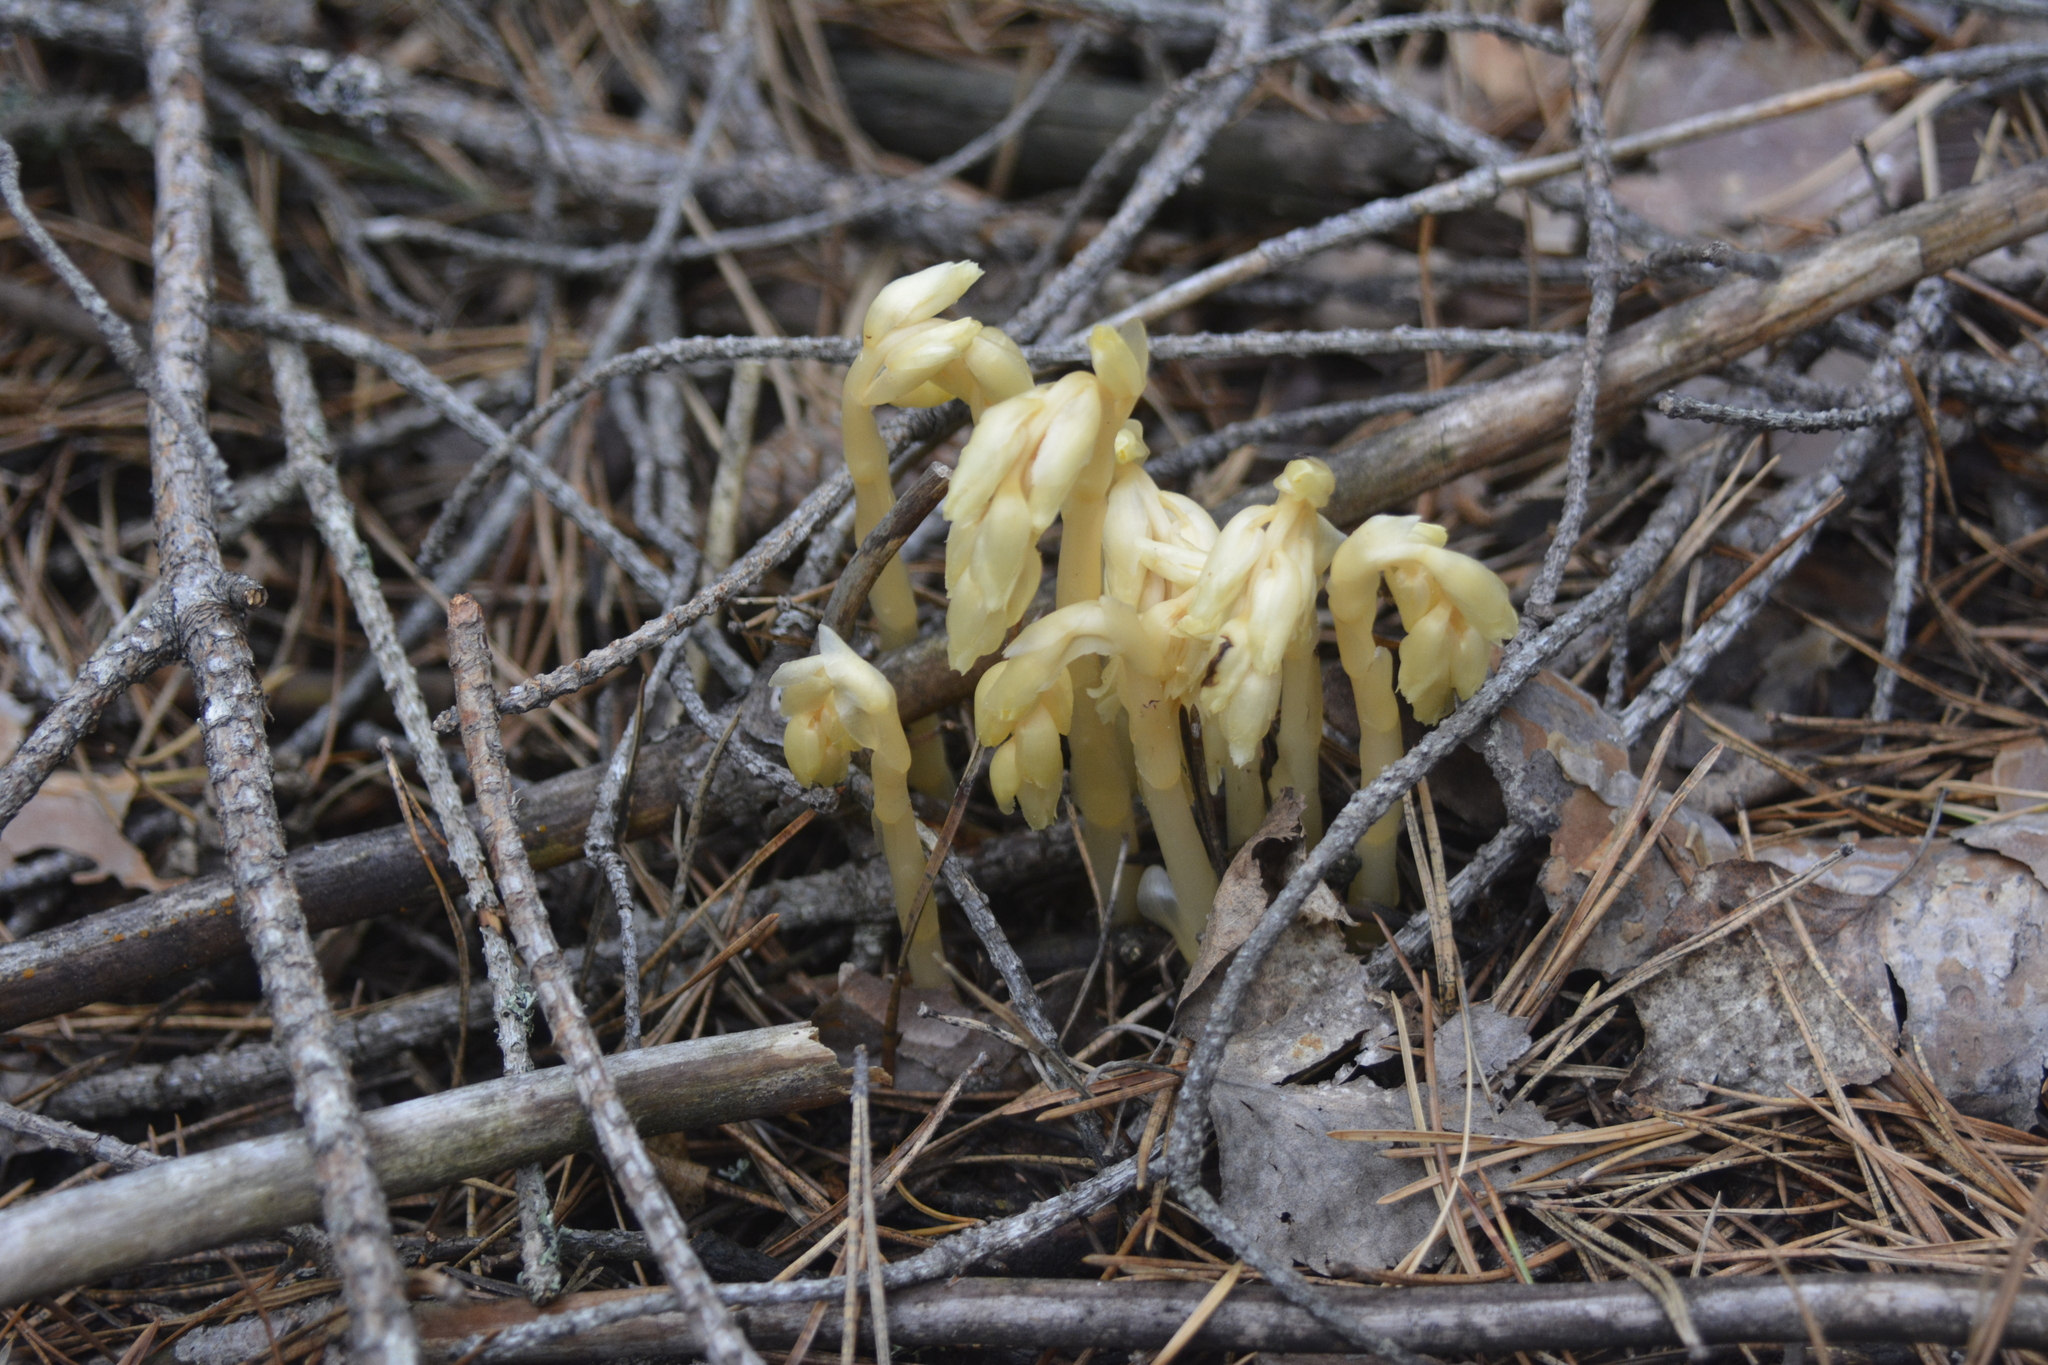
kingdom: Plantae
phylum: Tracheophyta
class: Magnoliopsida
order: Ericales
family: Ericaceae
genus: Hypopitys
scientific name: Hypopitys monotropa
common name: Yellow bird's-nest
